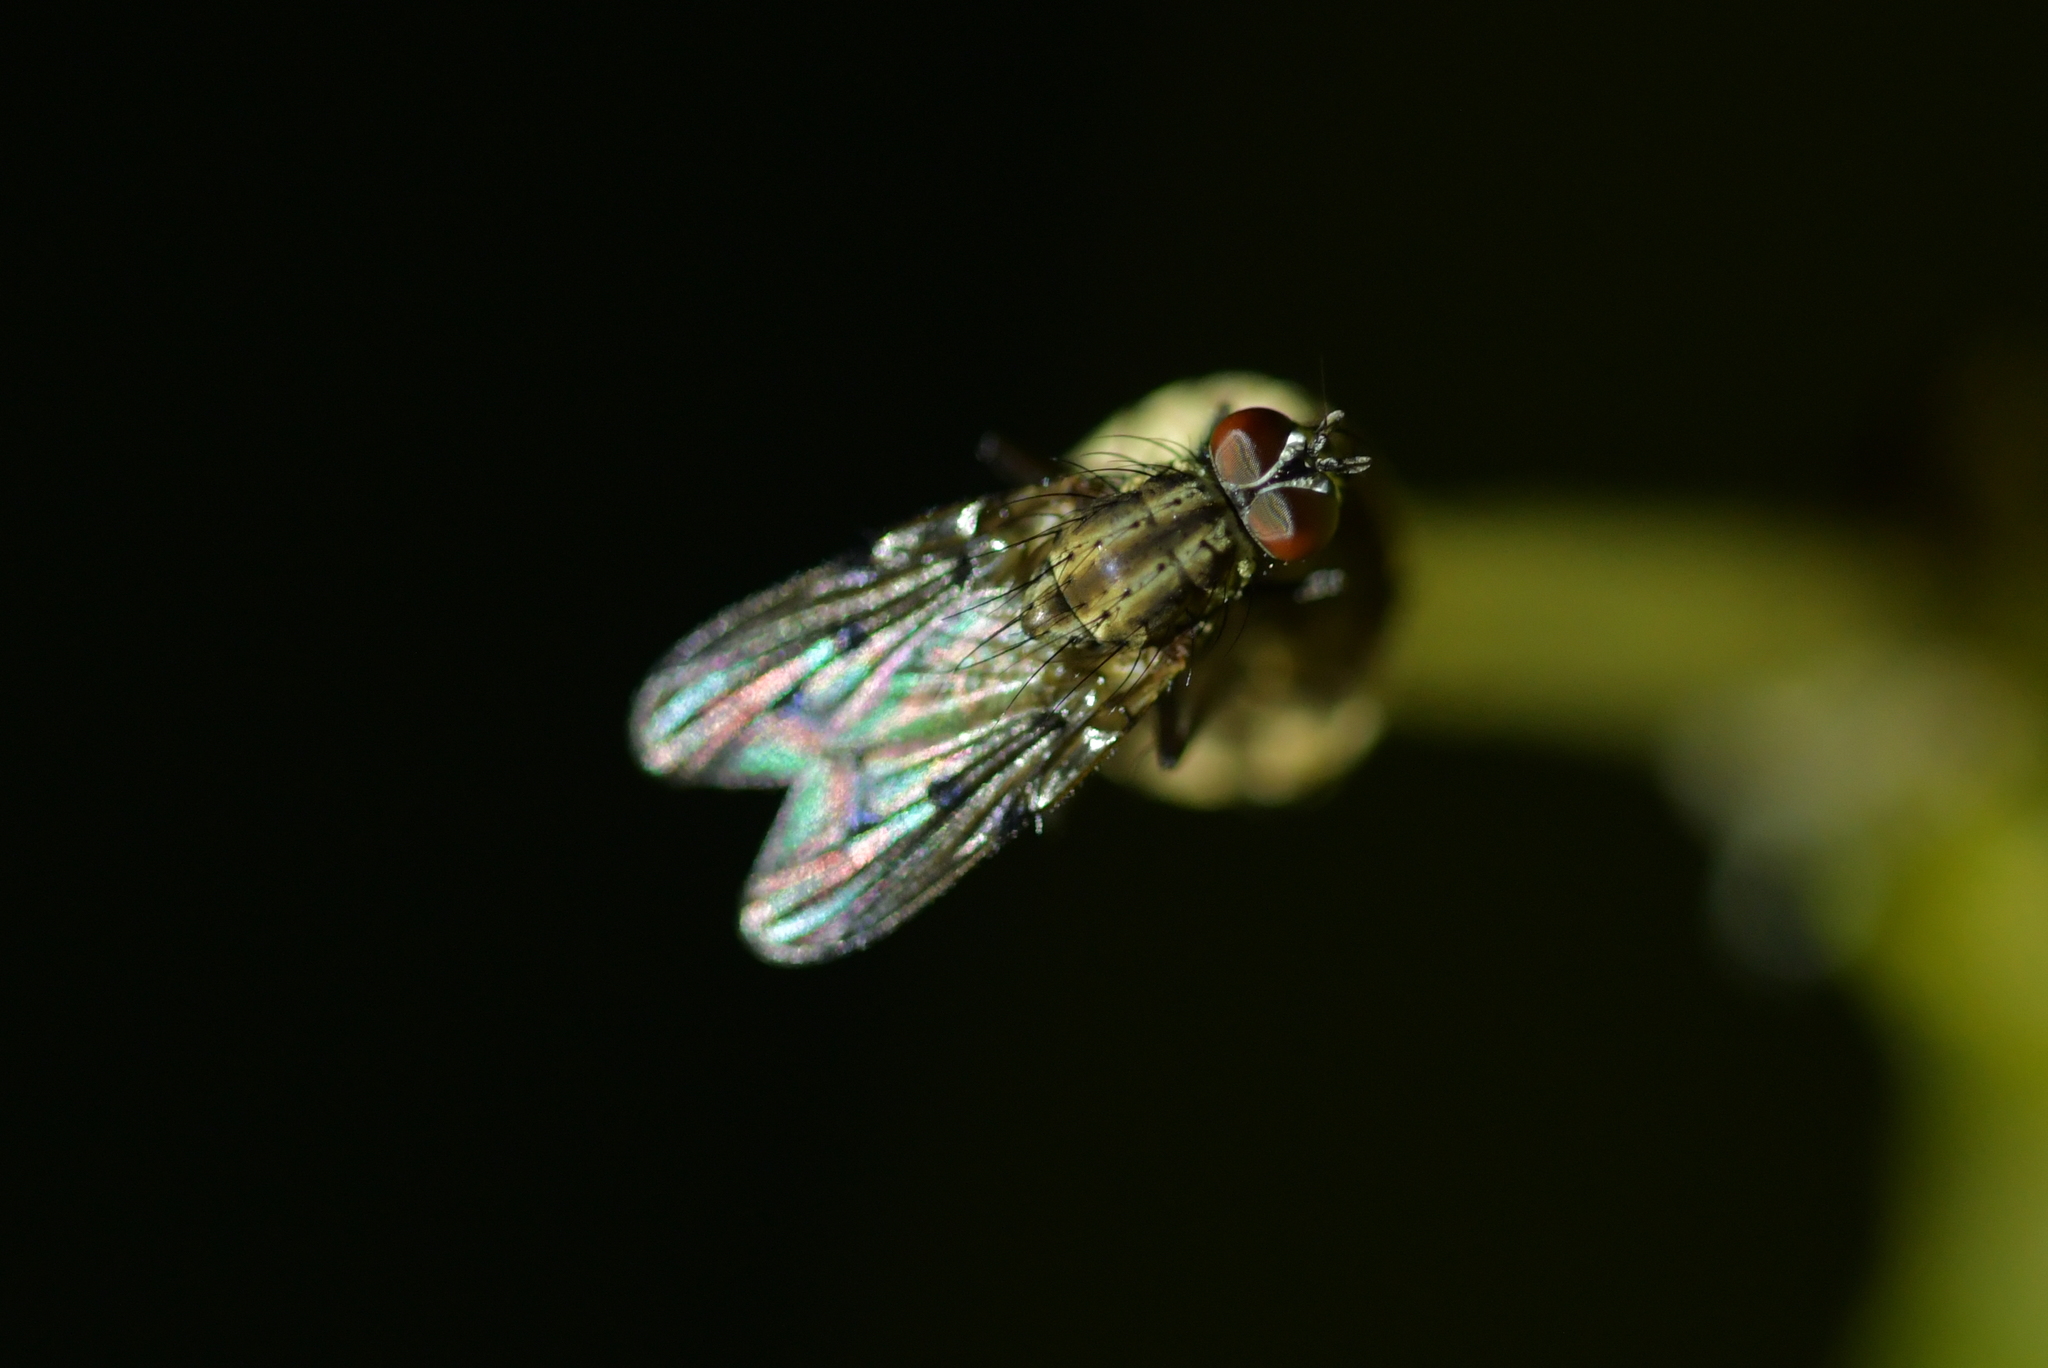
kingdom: Animalia
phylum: Arthropoda
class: Insecta
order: Diptera
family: Anthomyiidae
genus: Anthomyia
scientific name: Anthomyia punctipennis
